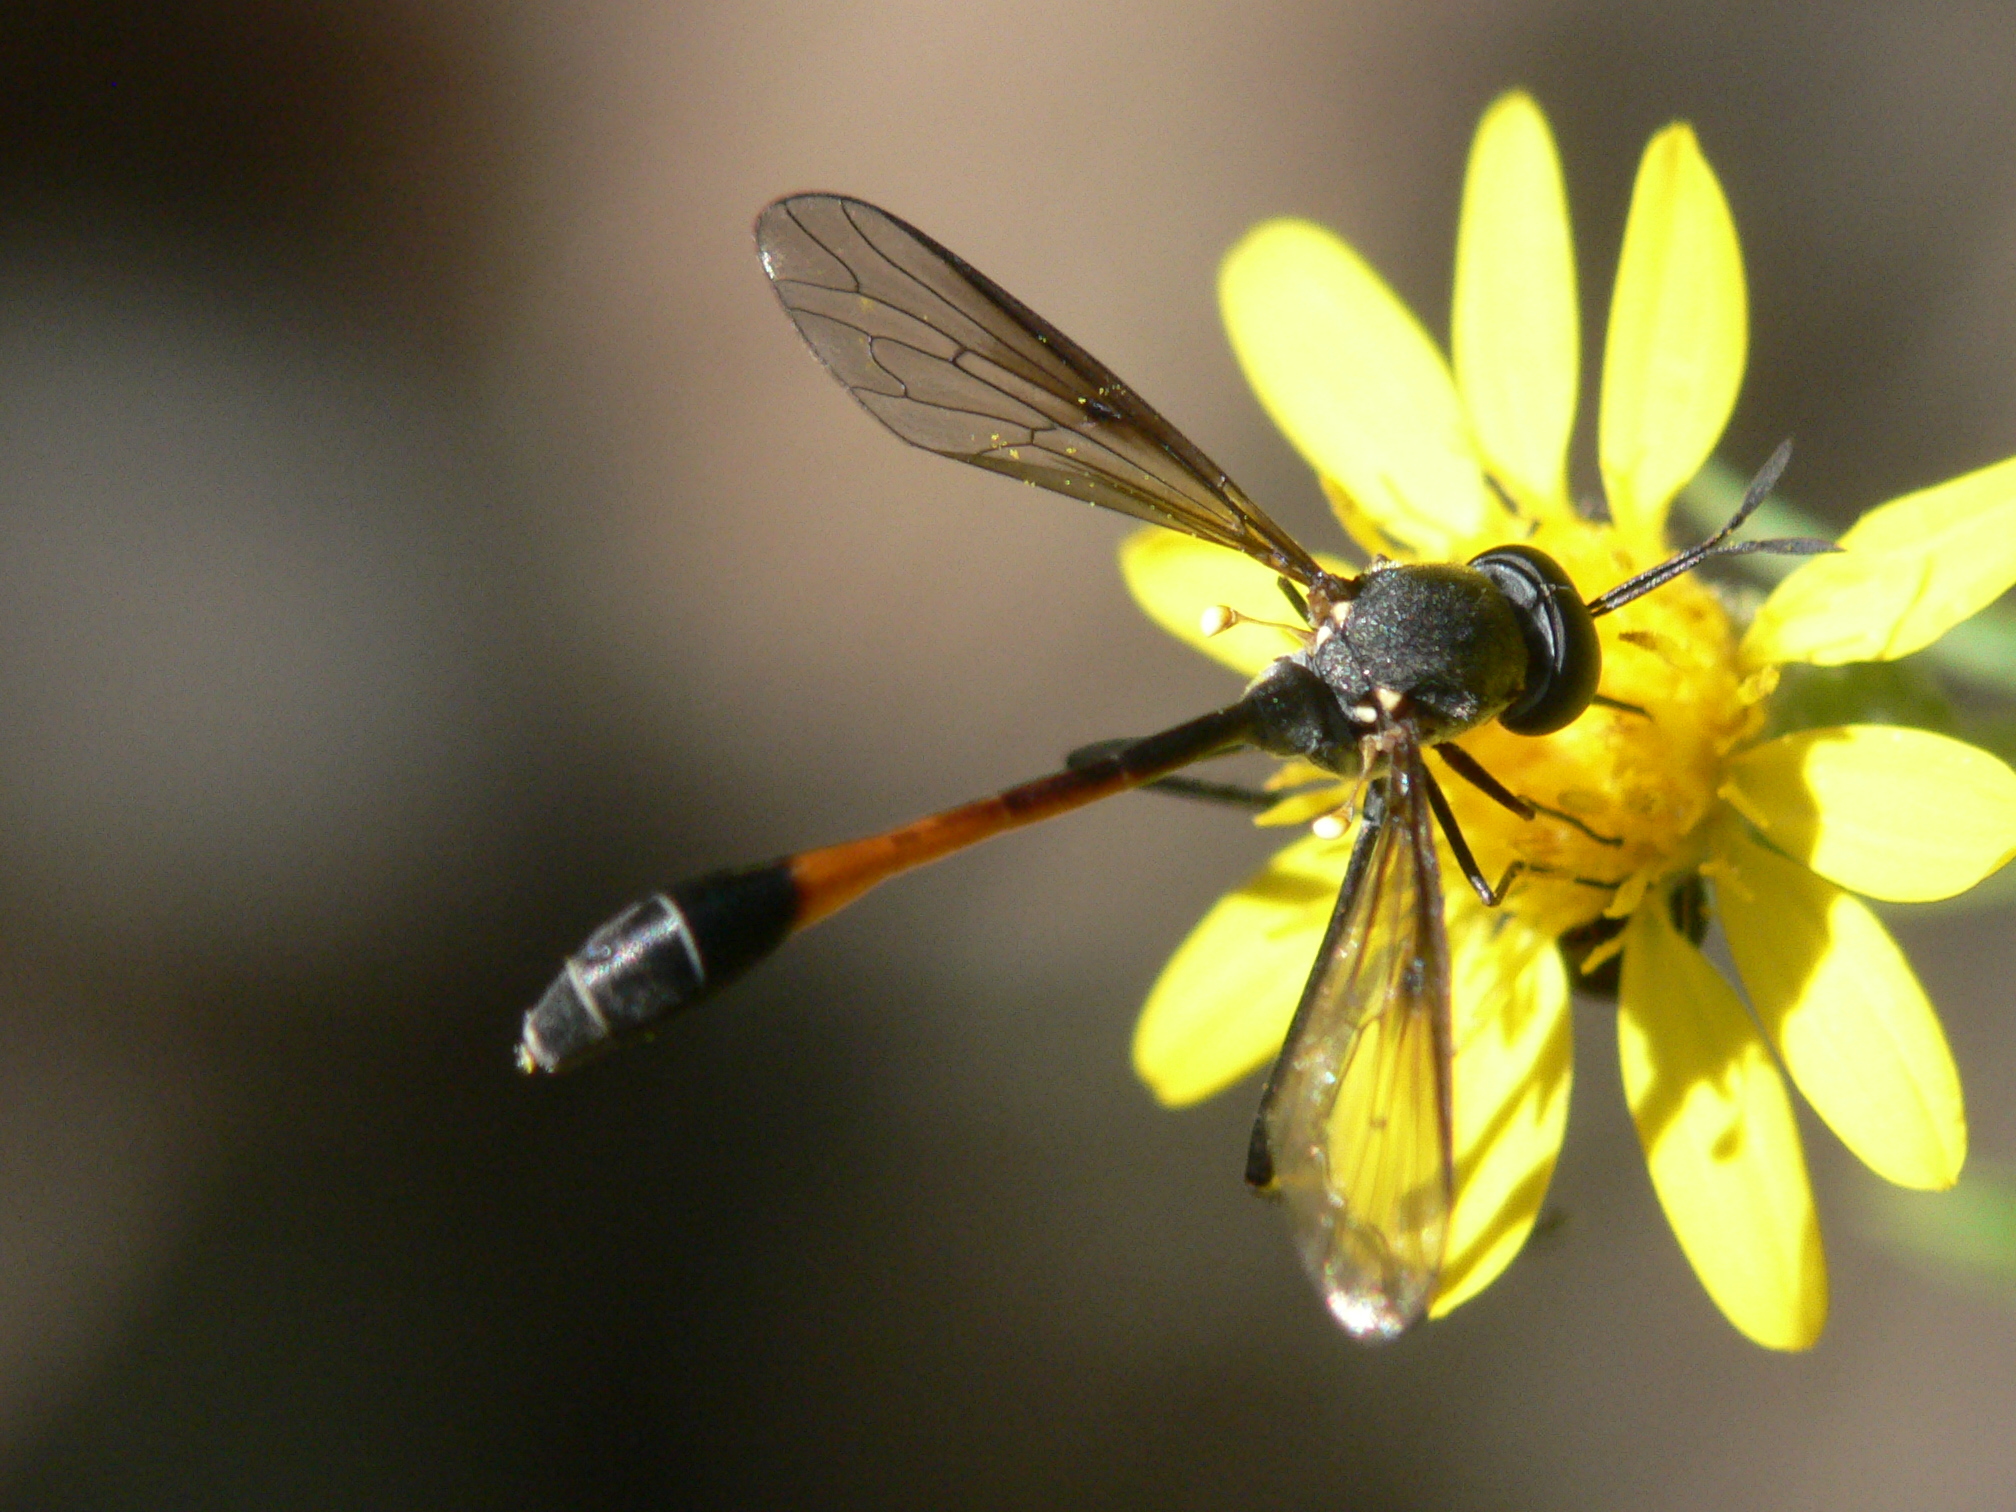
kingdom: Animalia
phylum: Arthropoda
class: Insecta
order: Diptera
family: Bombyliidae
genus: Systropus
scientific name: Systropus macer
